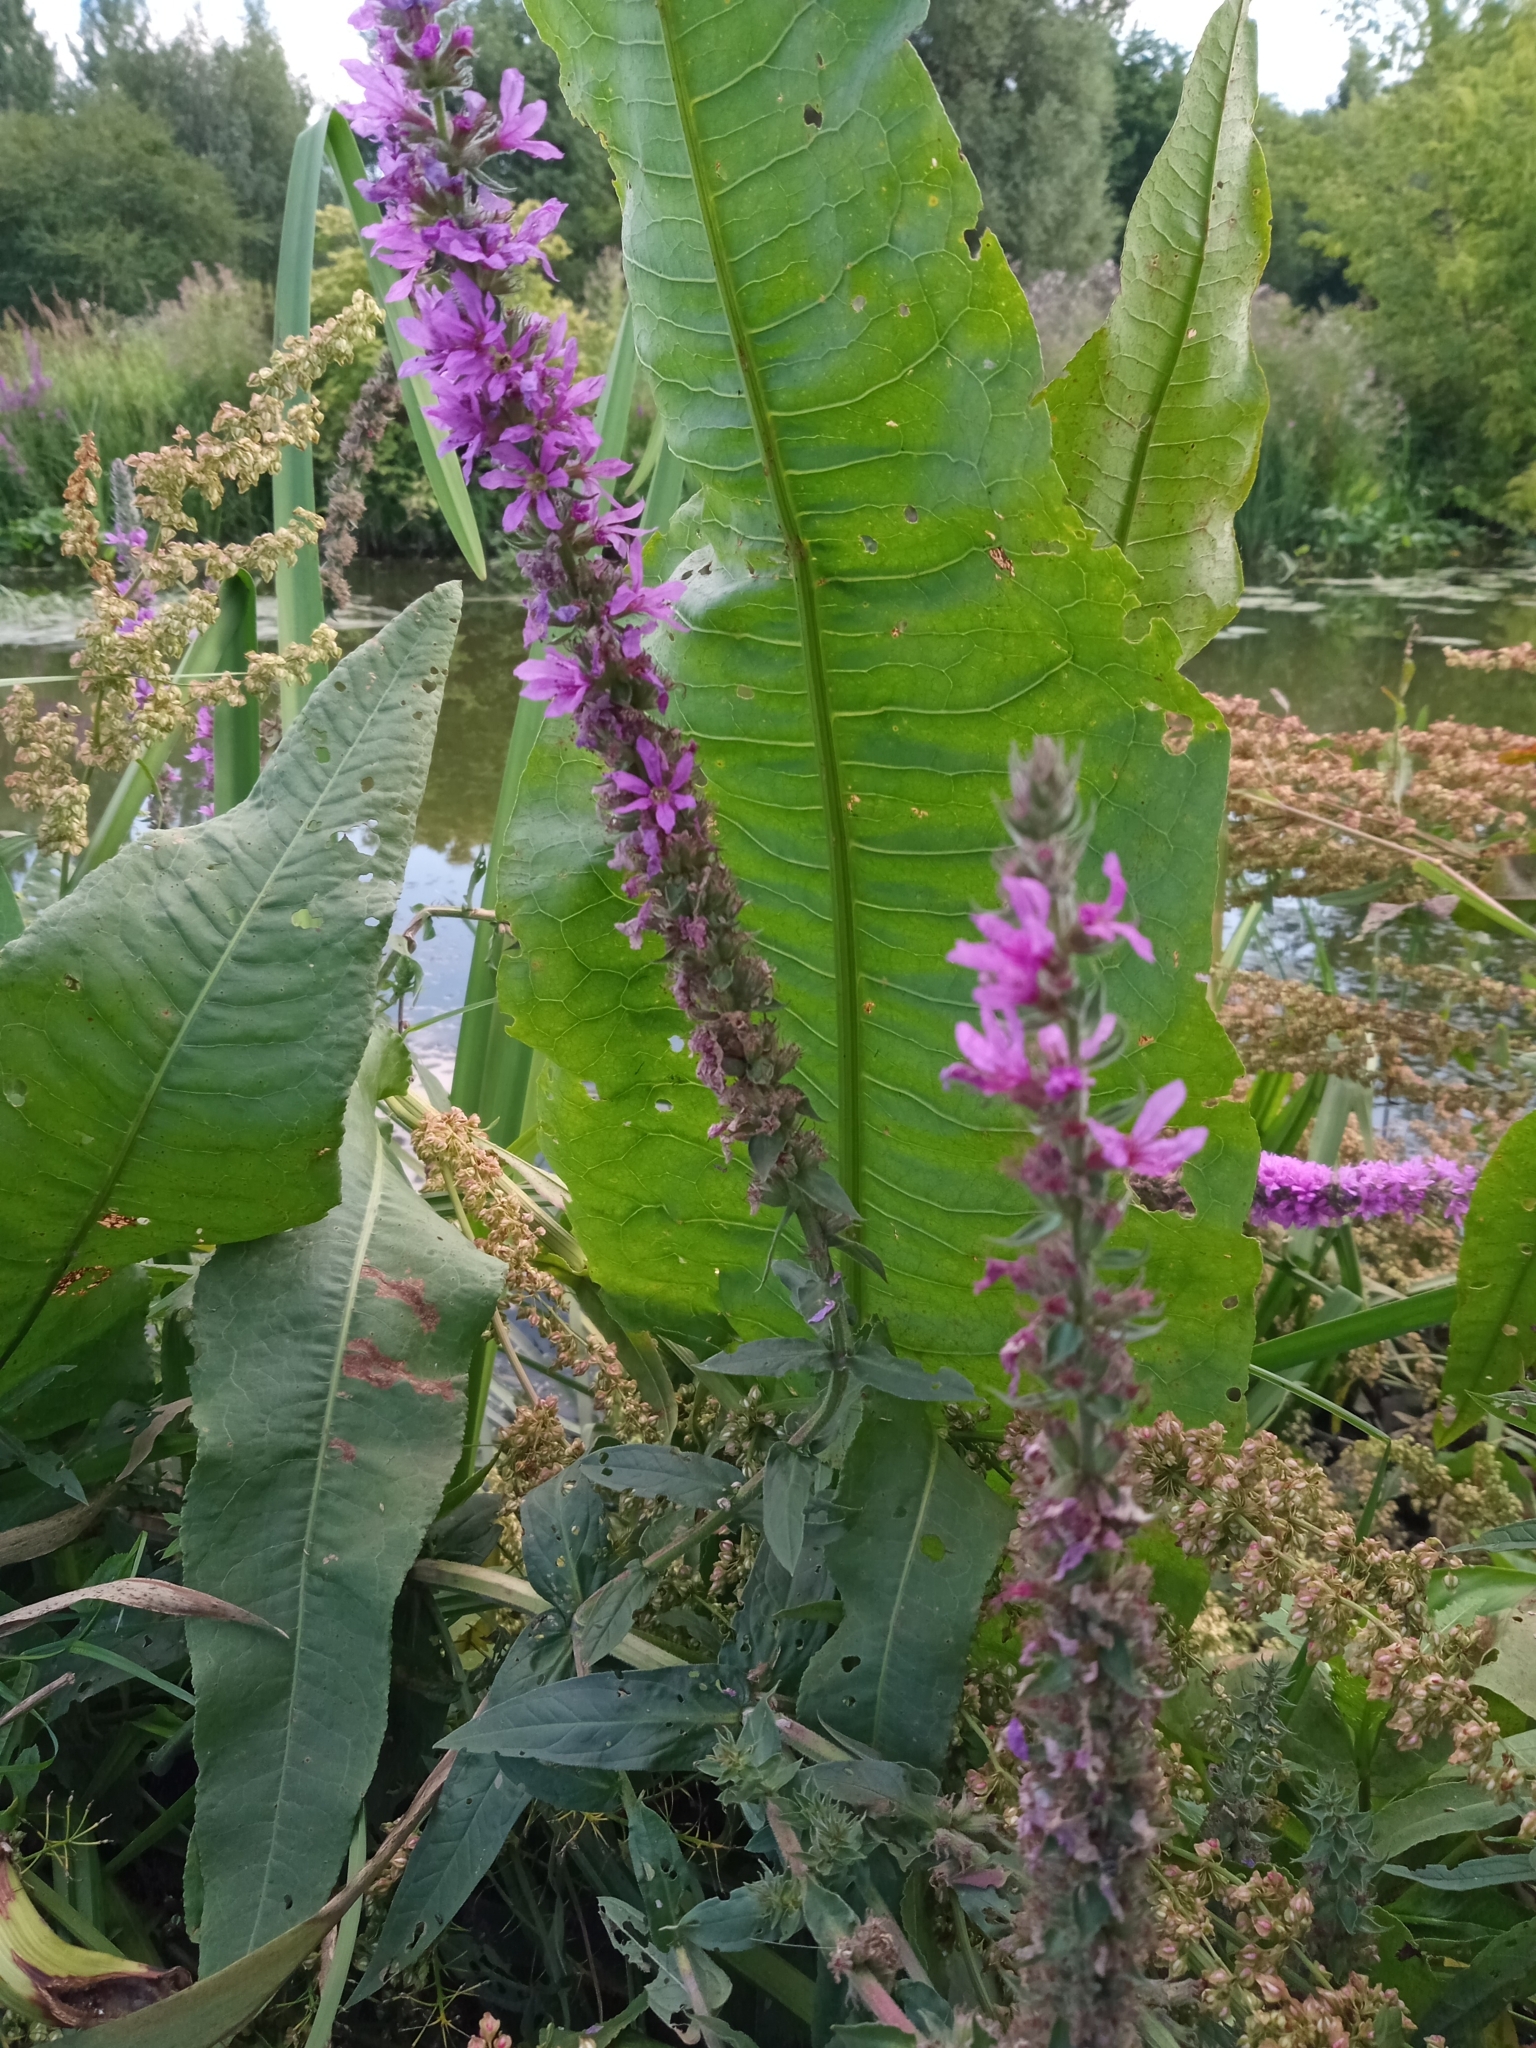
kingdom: Plantae
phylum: Tracheophyta
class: Magnoliopsida
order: Myrtales
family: Lythraceae
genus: Lythrum
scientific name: Lythrum salicaria
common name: Purple loosestrife
